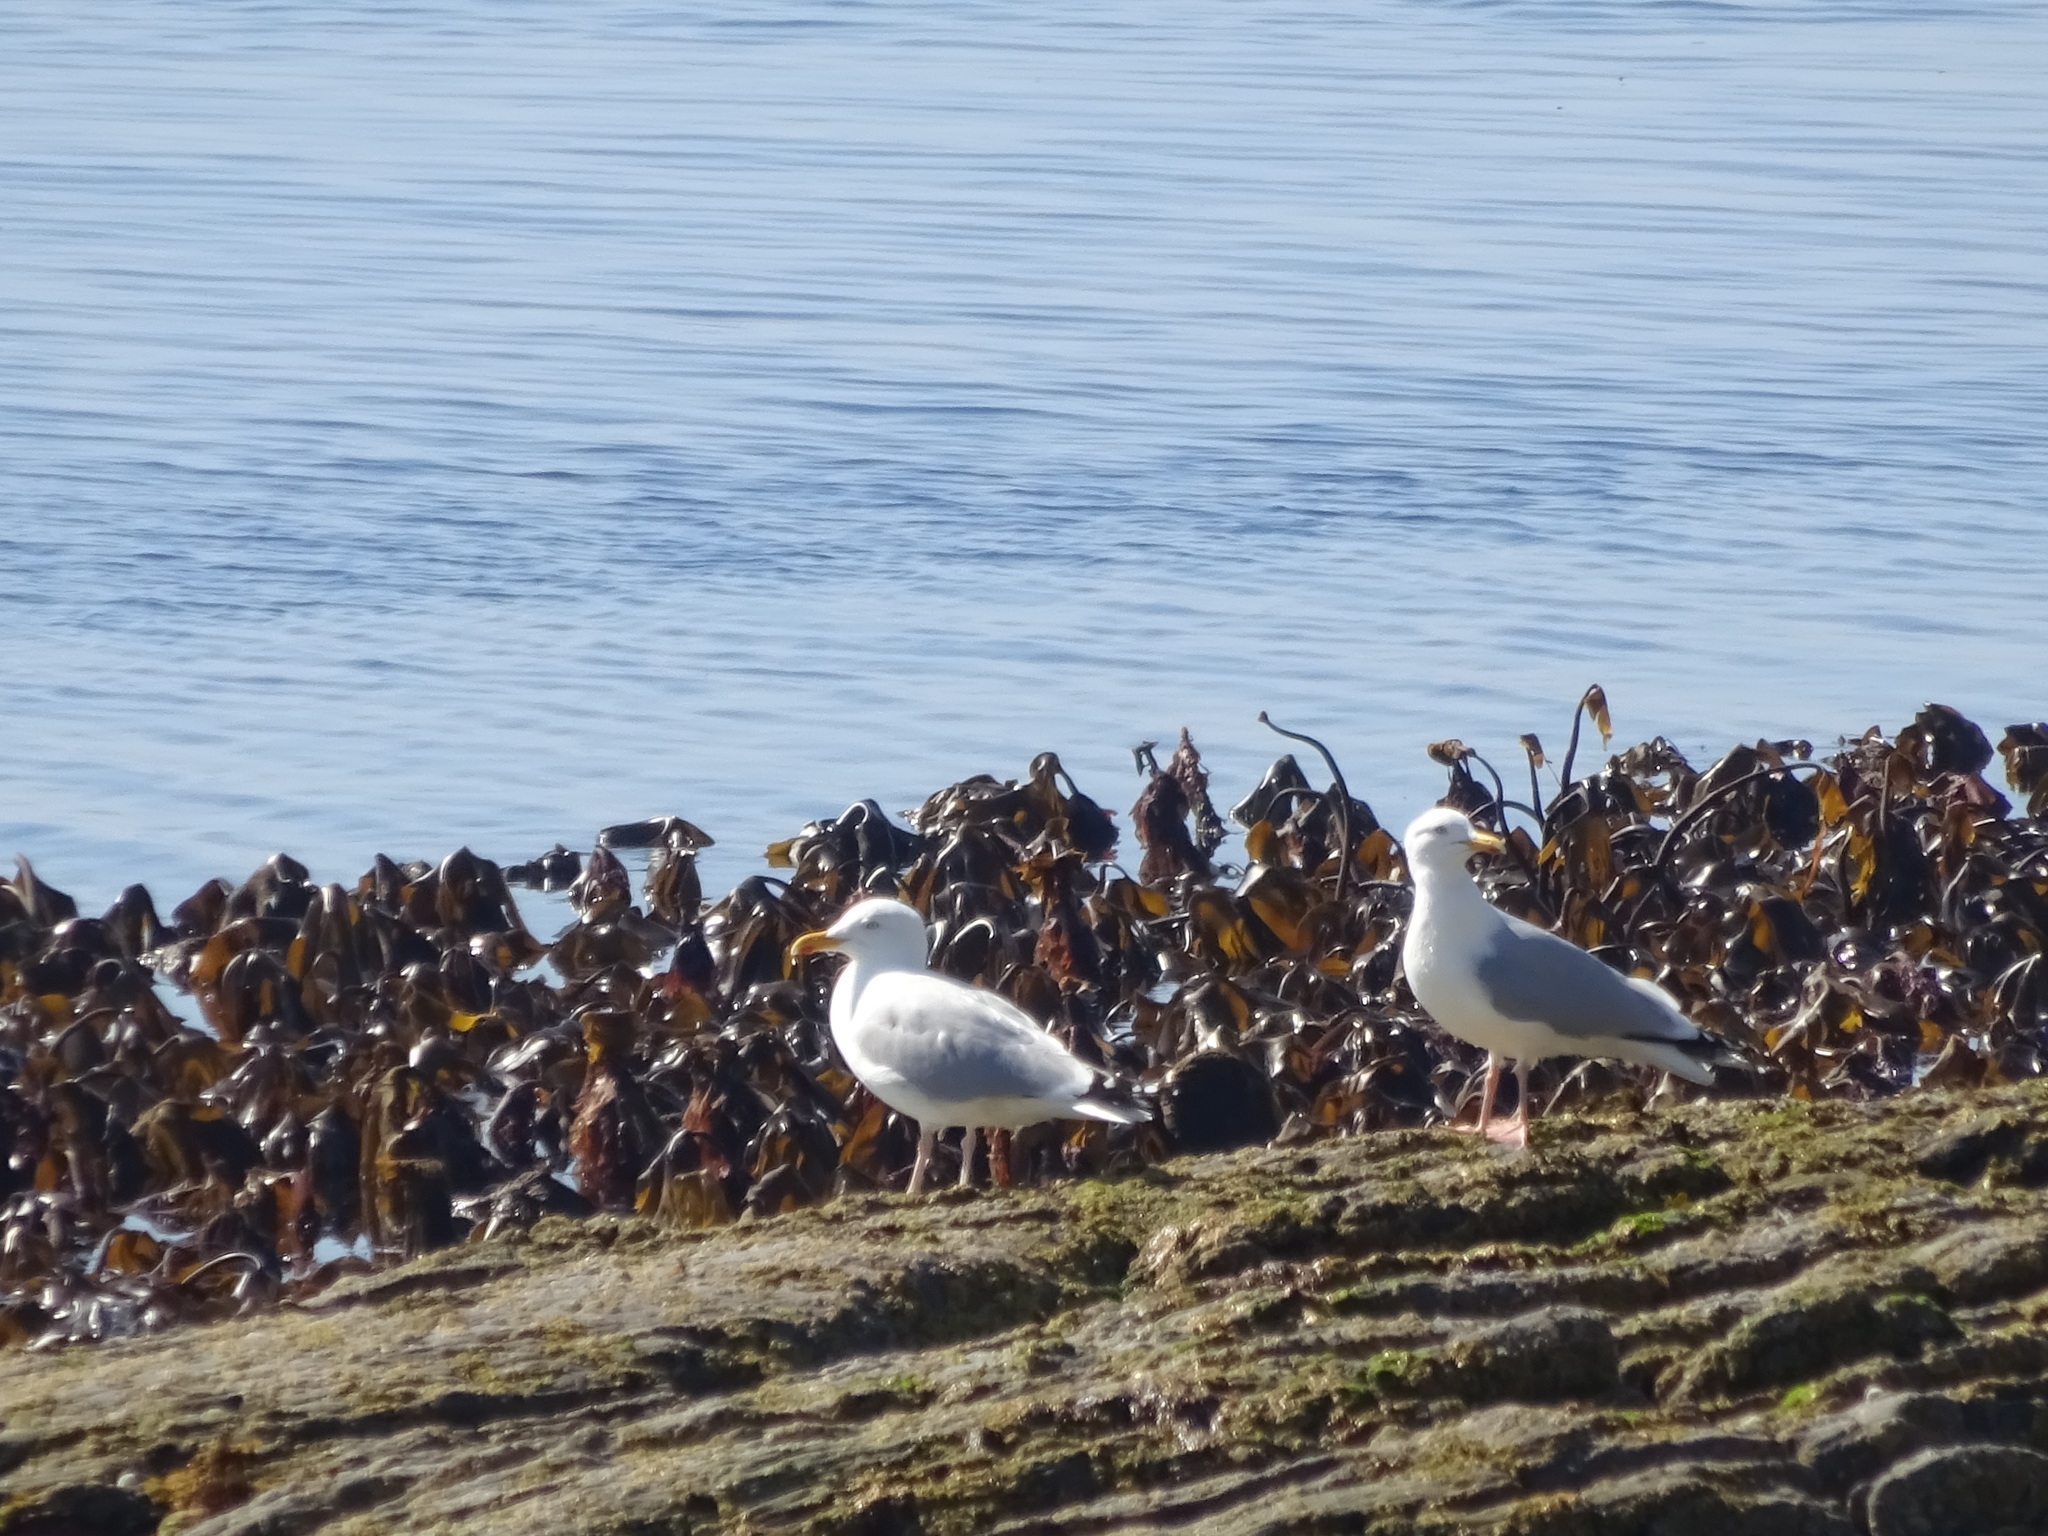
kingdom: Animalia
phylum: Chordata
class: Aves
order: Charadriiformes
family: Laridae
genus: Larus
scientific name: Larus argentatus
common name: Herring gull
